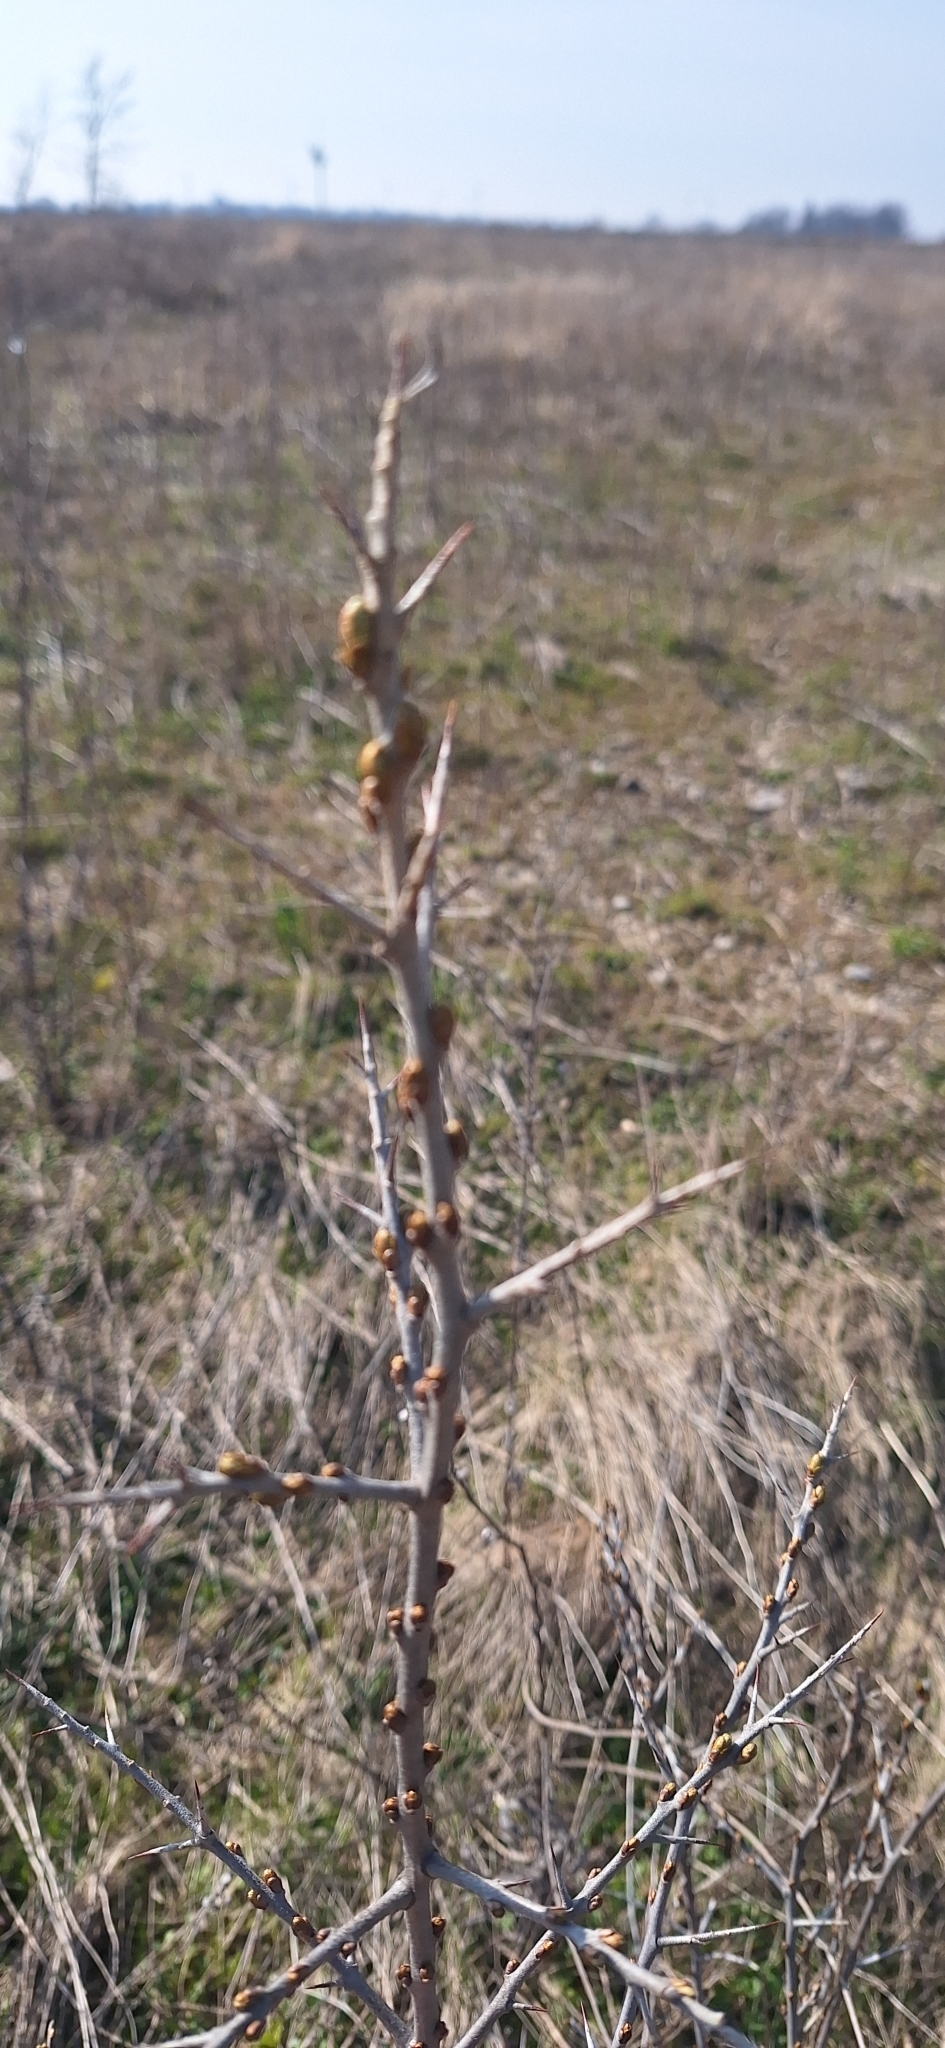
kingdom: Plantae
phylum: Tracheophyta
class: Magnoliopsida
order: Rosales
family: Elaeagnaceae
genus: Hippophae
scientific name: Hippophae rhamnoides
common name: Sea-buckthorn
